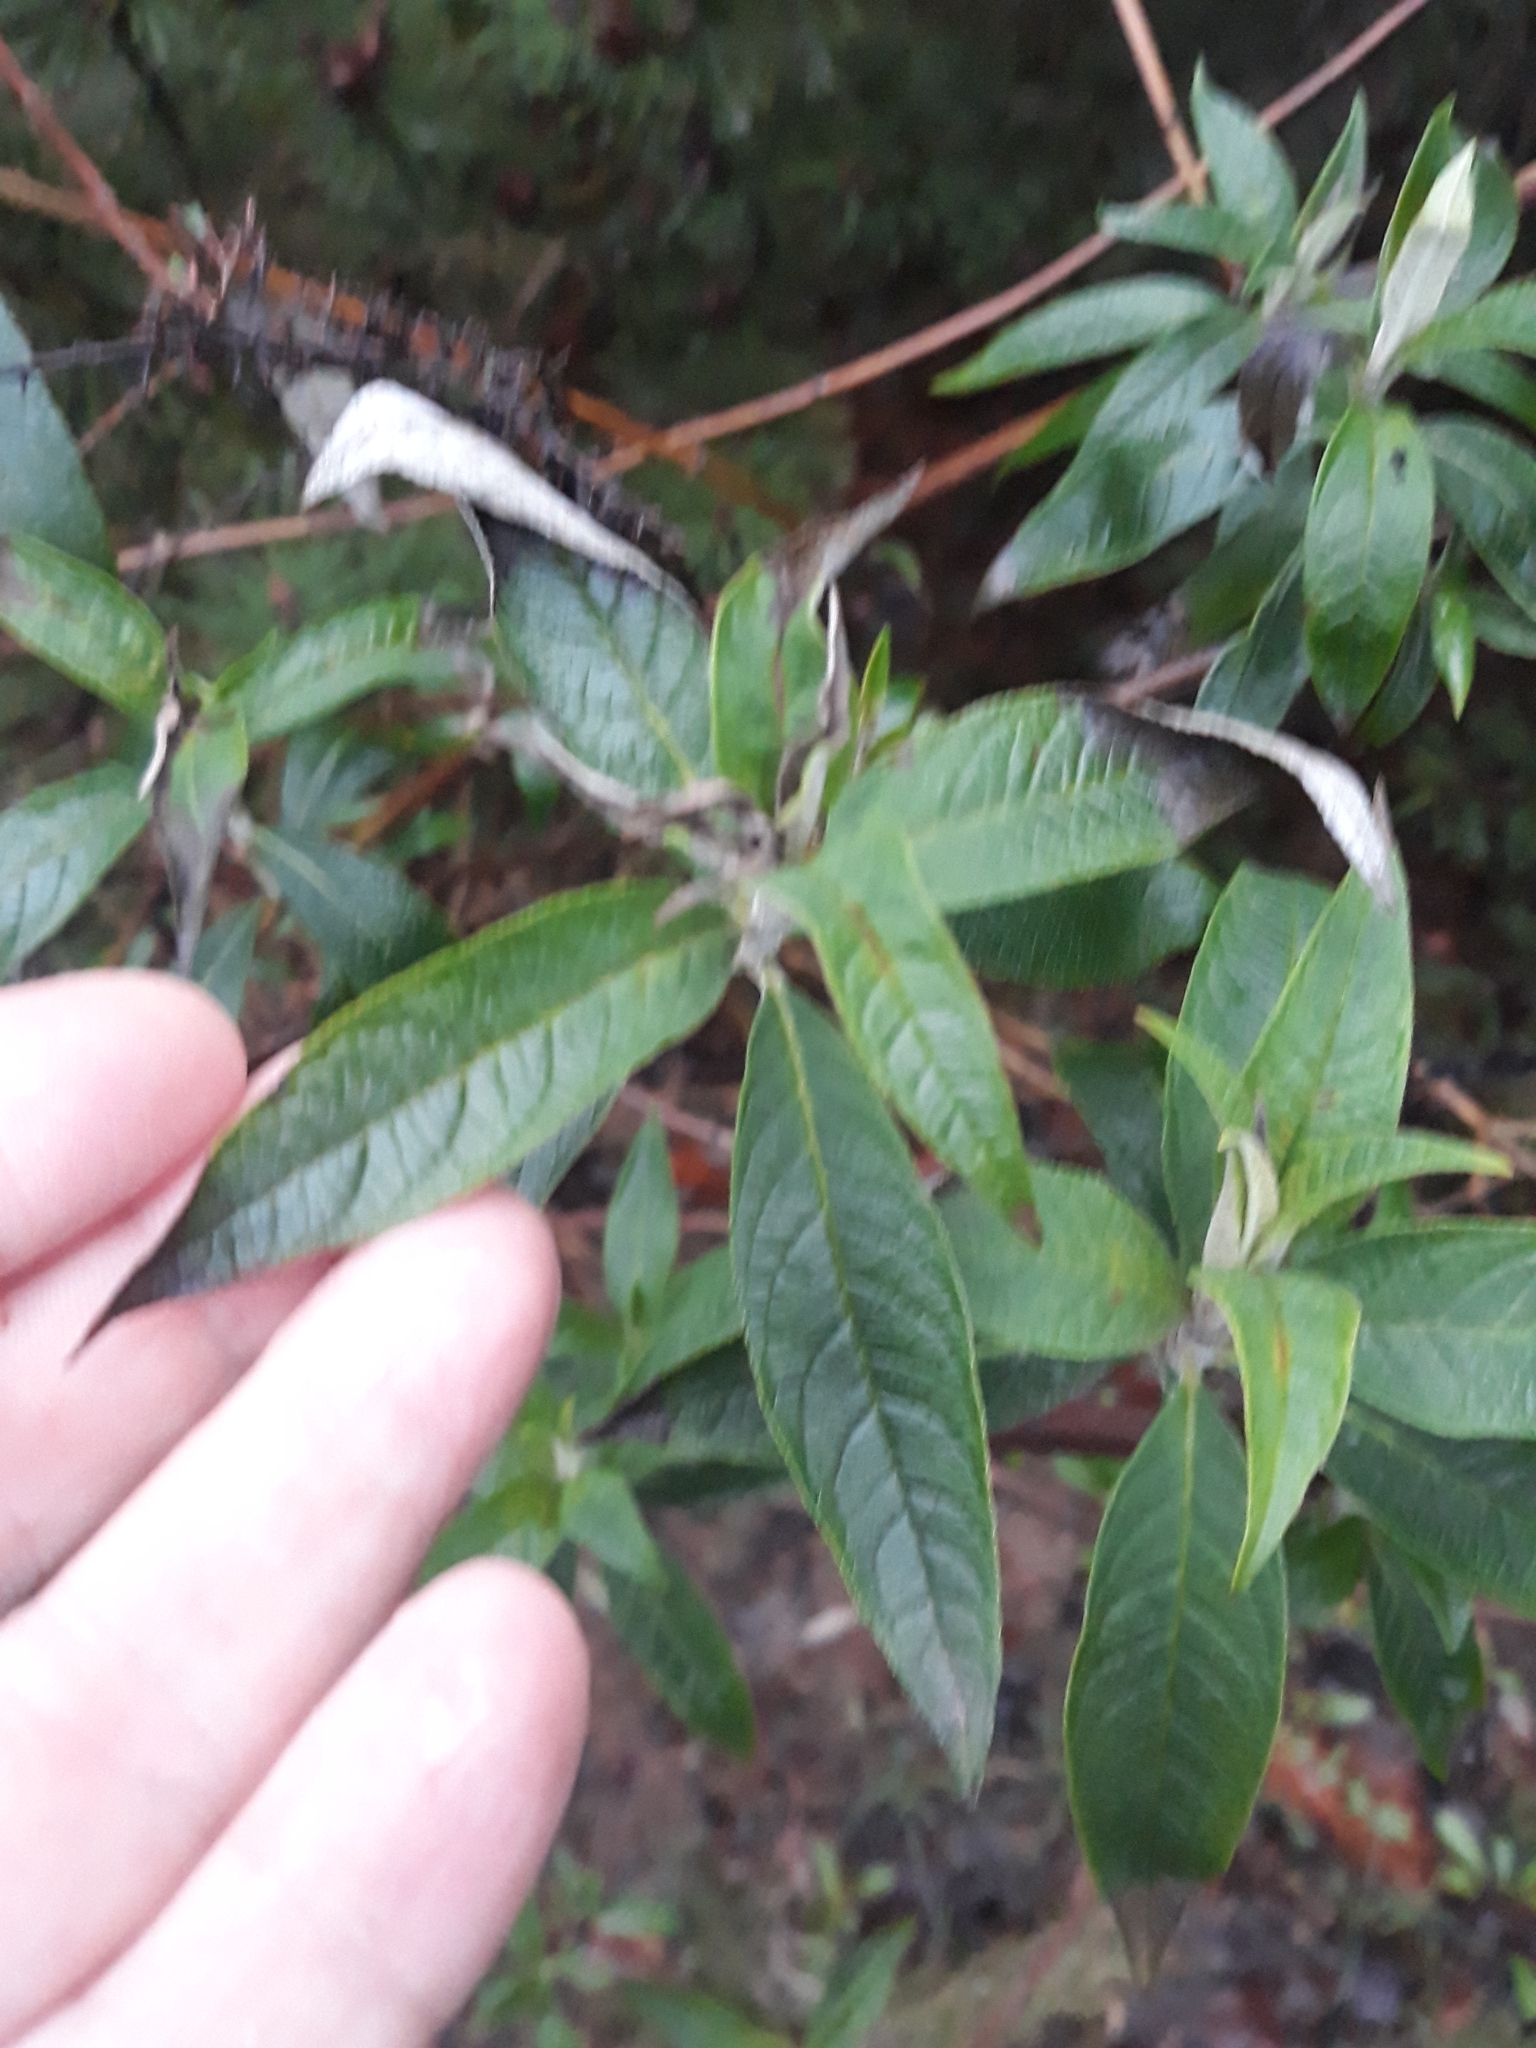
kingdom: Plantae
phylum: Tracheophyta
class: Magnoliopsida
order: Lamiales
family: Scrophulariaceae
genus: Buddleja
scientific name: Buddleja davidii
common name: Butterfly-bush
